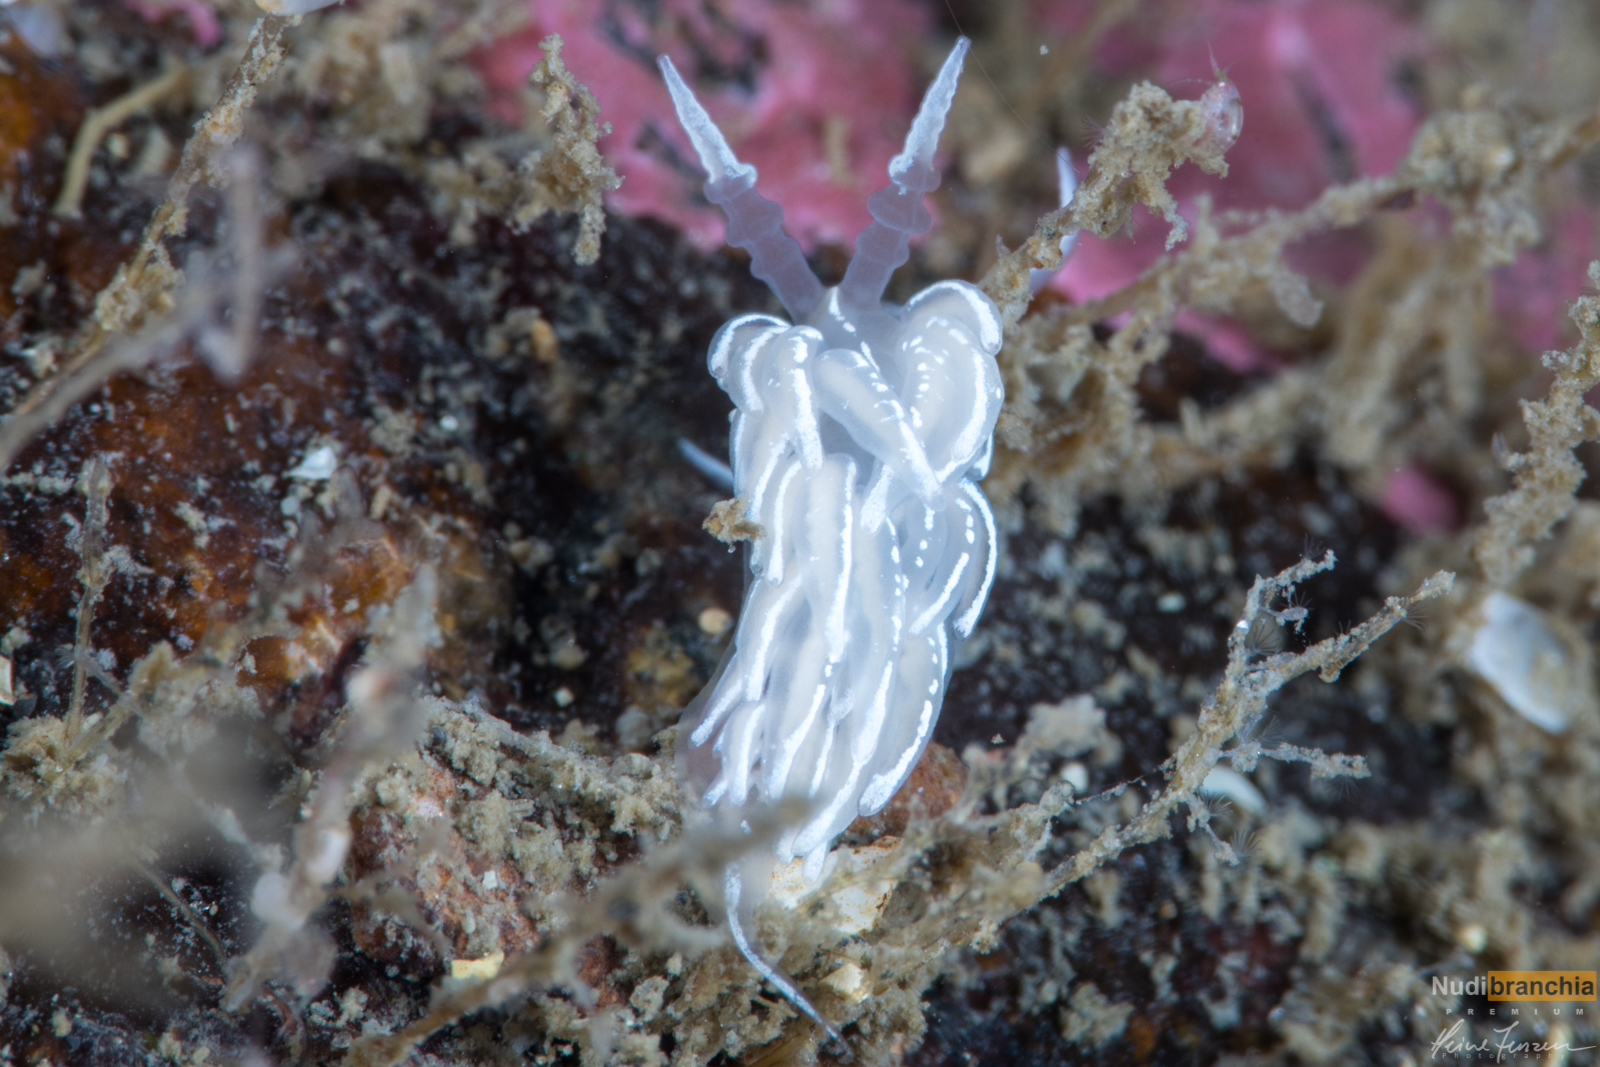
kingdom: Animalia
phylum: Mollusca
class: Gastropoda
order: Nudibranchia
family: Facelinidae
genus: Favorinus
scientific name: Favorinus blianus
